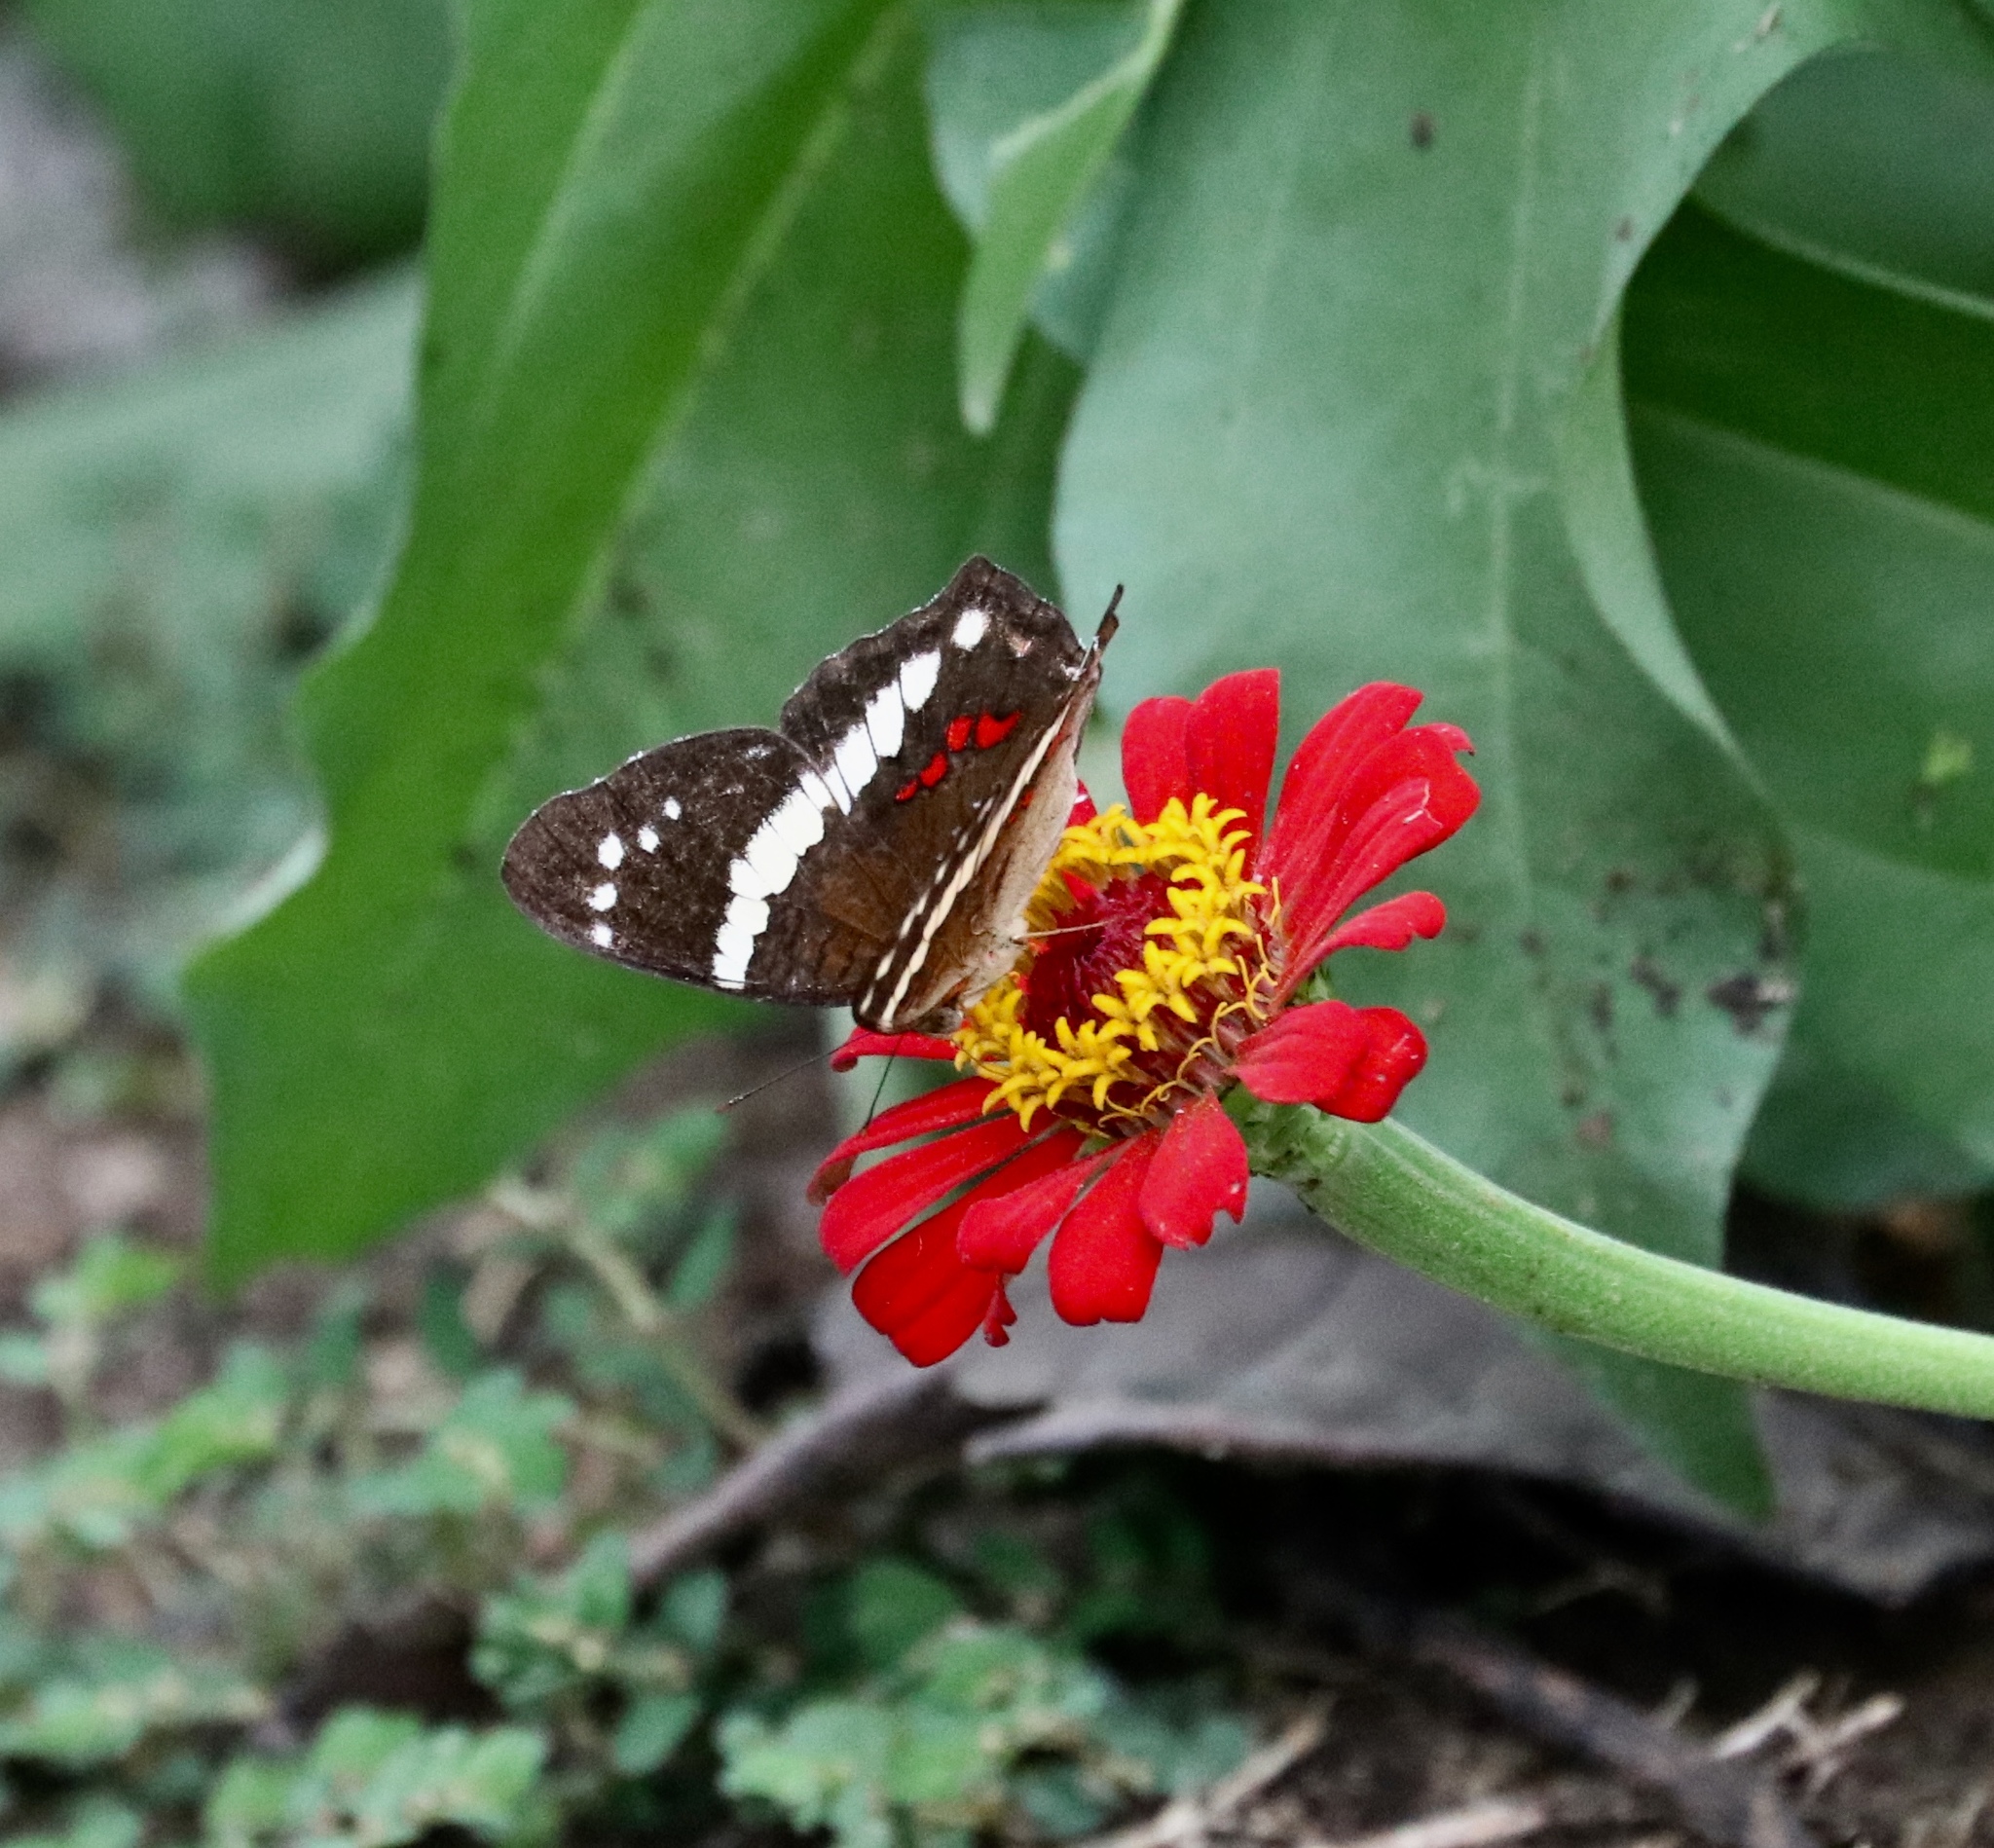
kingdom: Animalia
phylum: Arthropoda
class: Insecta
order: Lepidoptera
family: Nymphalidae
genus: Anartia
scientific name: Anartia fatima
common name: Banded peacock
